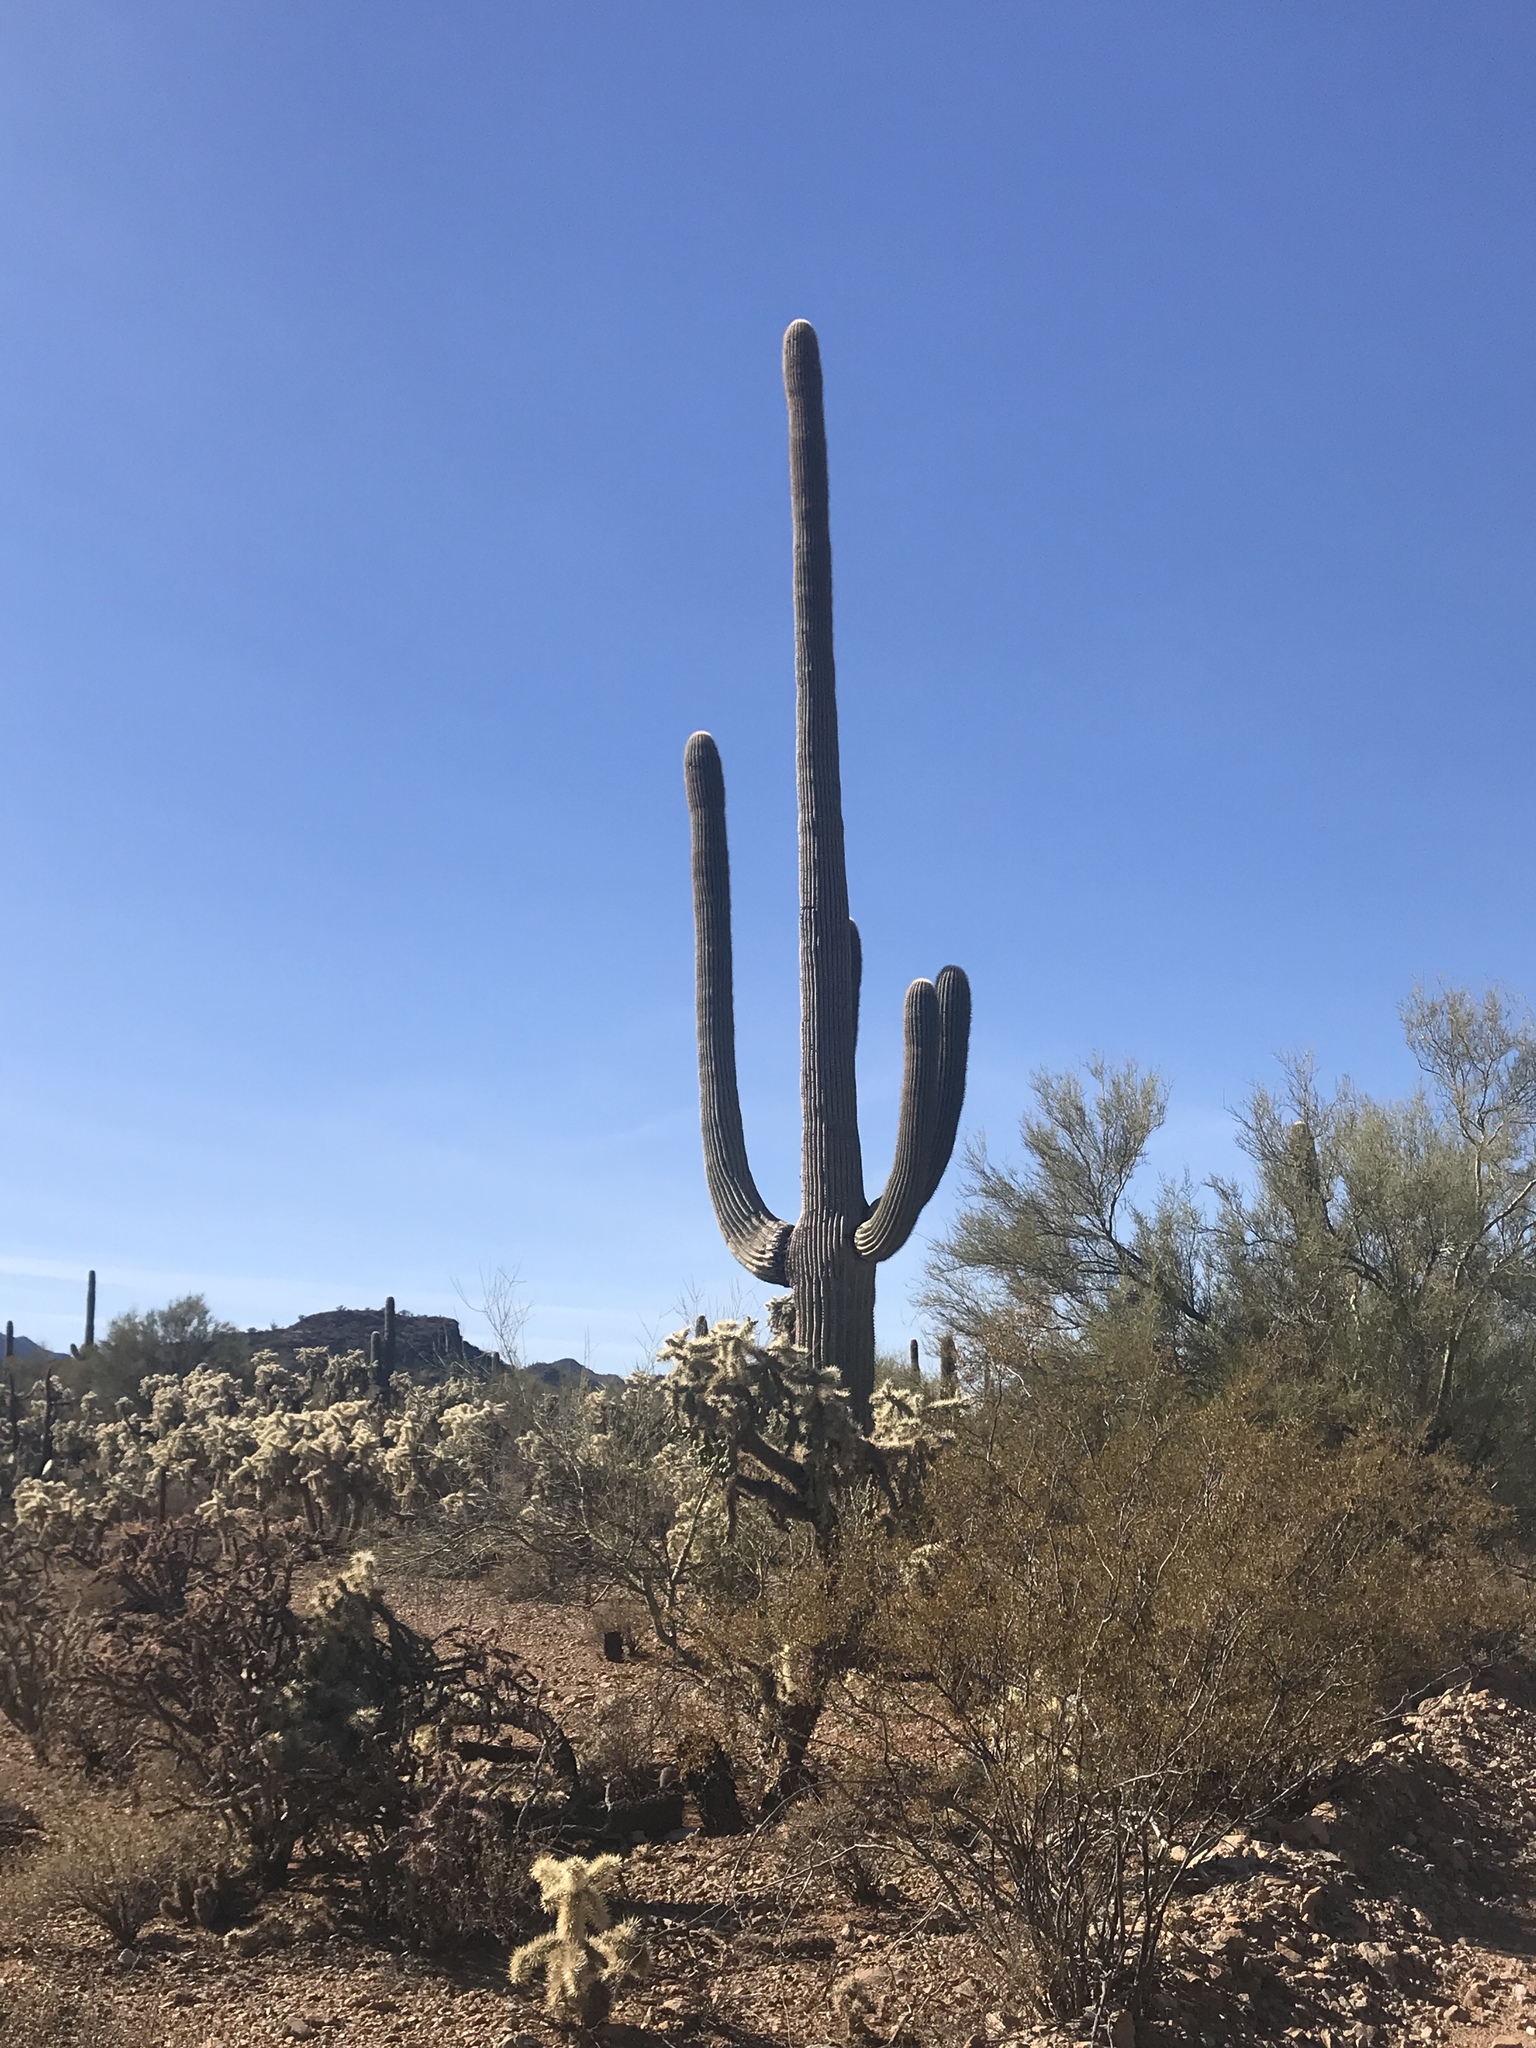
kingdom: Plantae
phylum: Tracheophyta
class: Magnoliopsida
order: Caryophyllales
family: Cactaceae
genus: Carnegiea
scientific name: Carnegiea gigantea
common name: Saguaro
